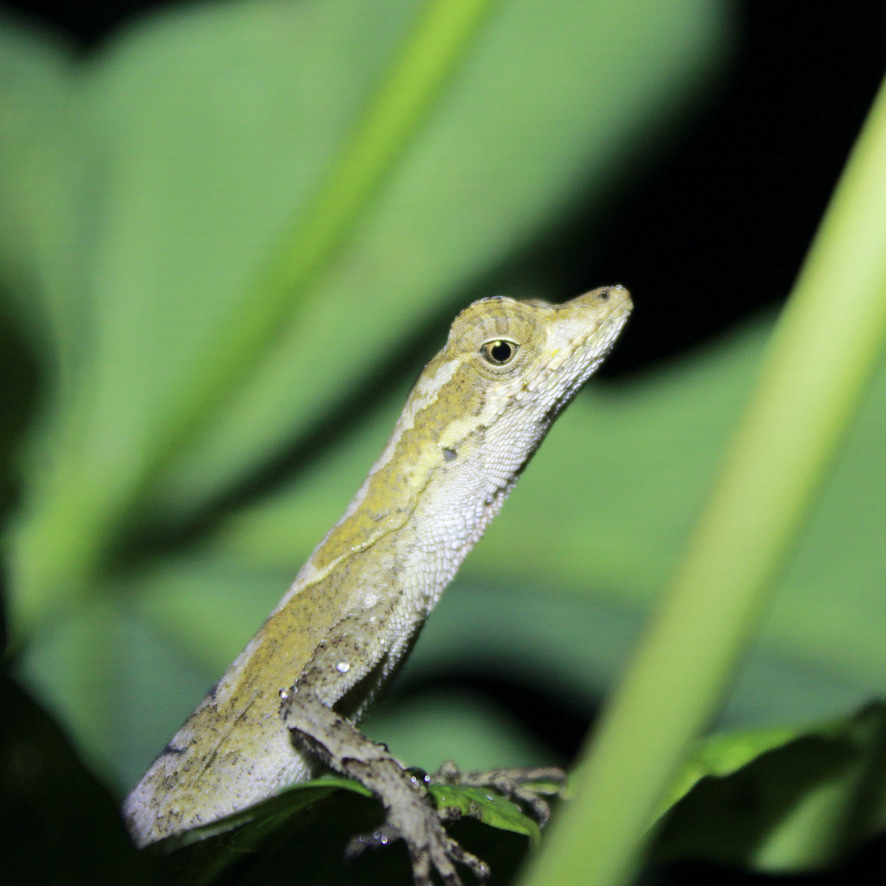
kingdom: Animalia
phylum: Chordata
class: Squamata
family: Dactyloidae
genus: Anolis
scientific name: Anolis planiceps
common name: Goldenscale anole
